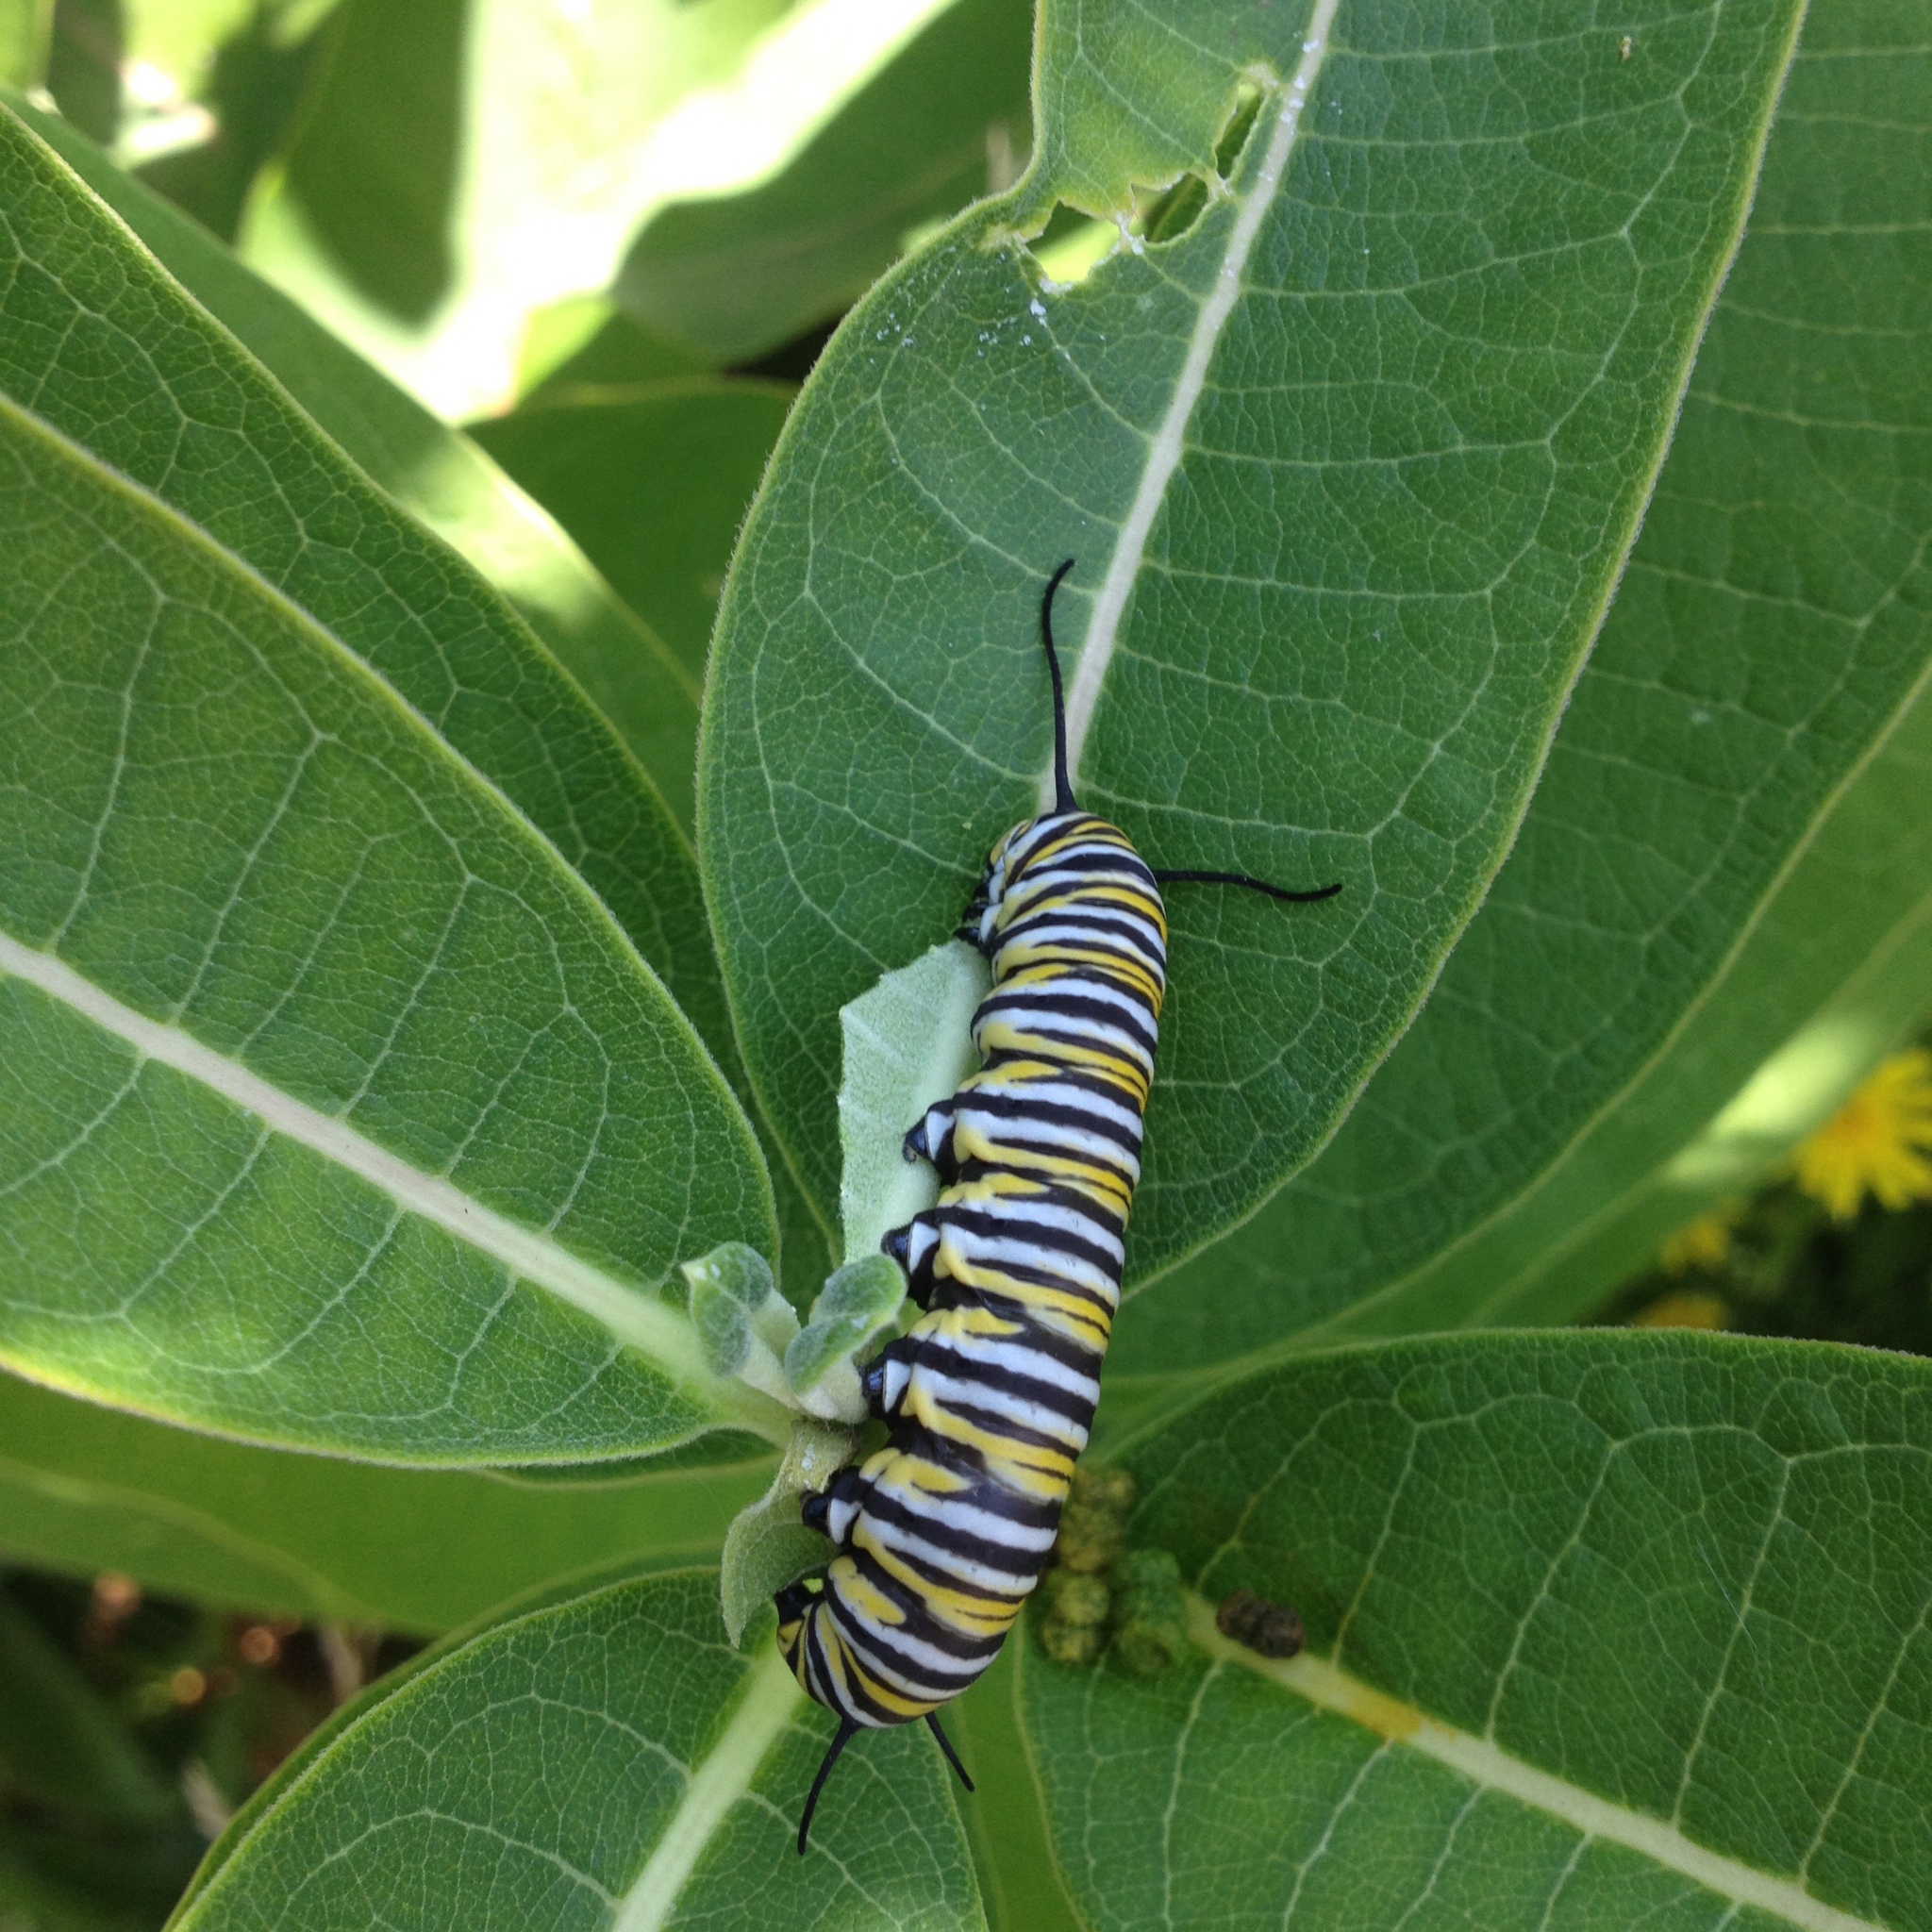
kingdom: Animalia
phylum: Arthropoda
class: Insecta
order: Lepidoptera
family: Nymphalidae
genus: Danaus
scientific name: Danaus plexippus
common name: Monarch
